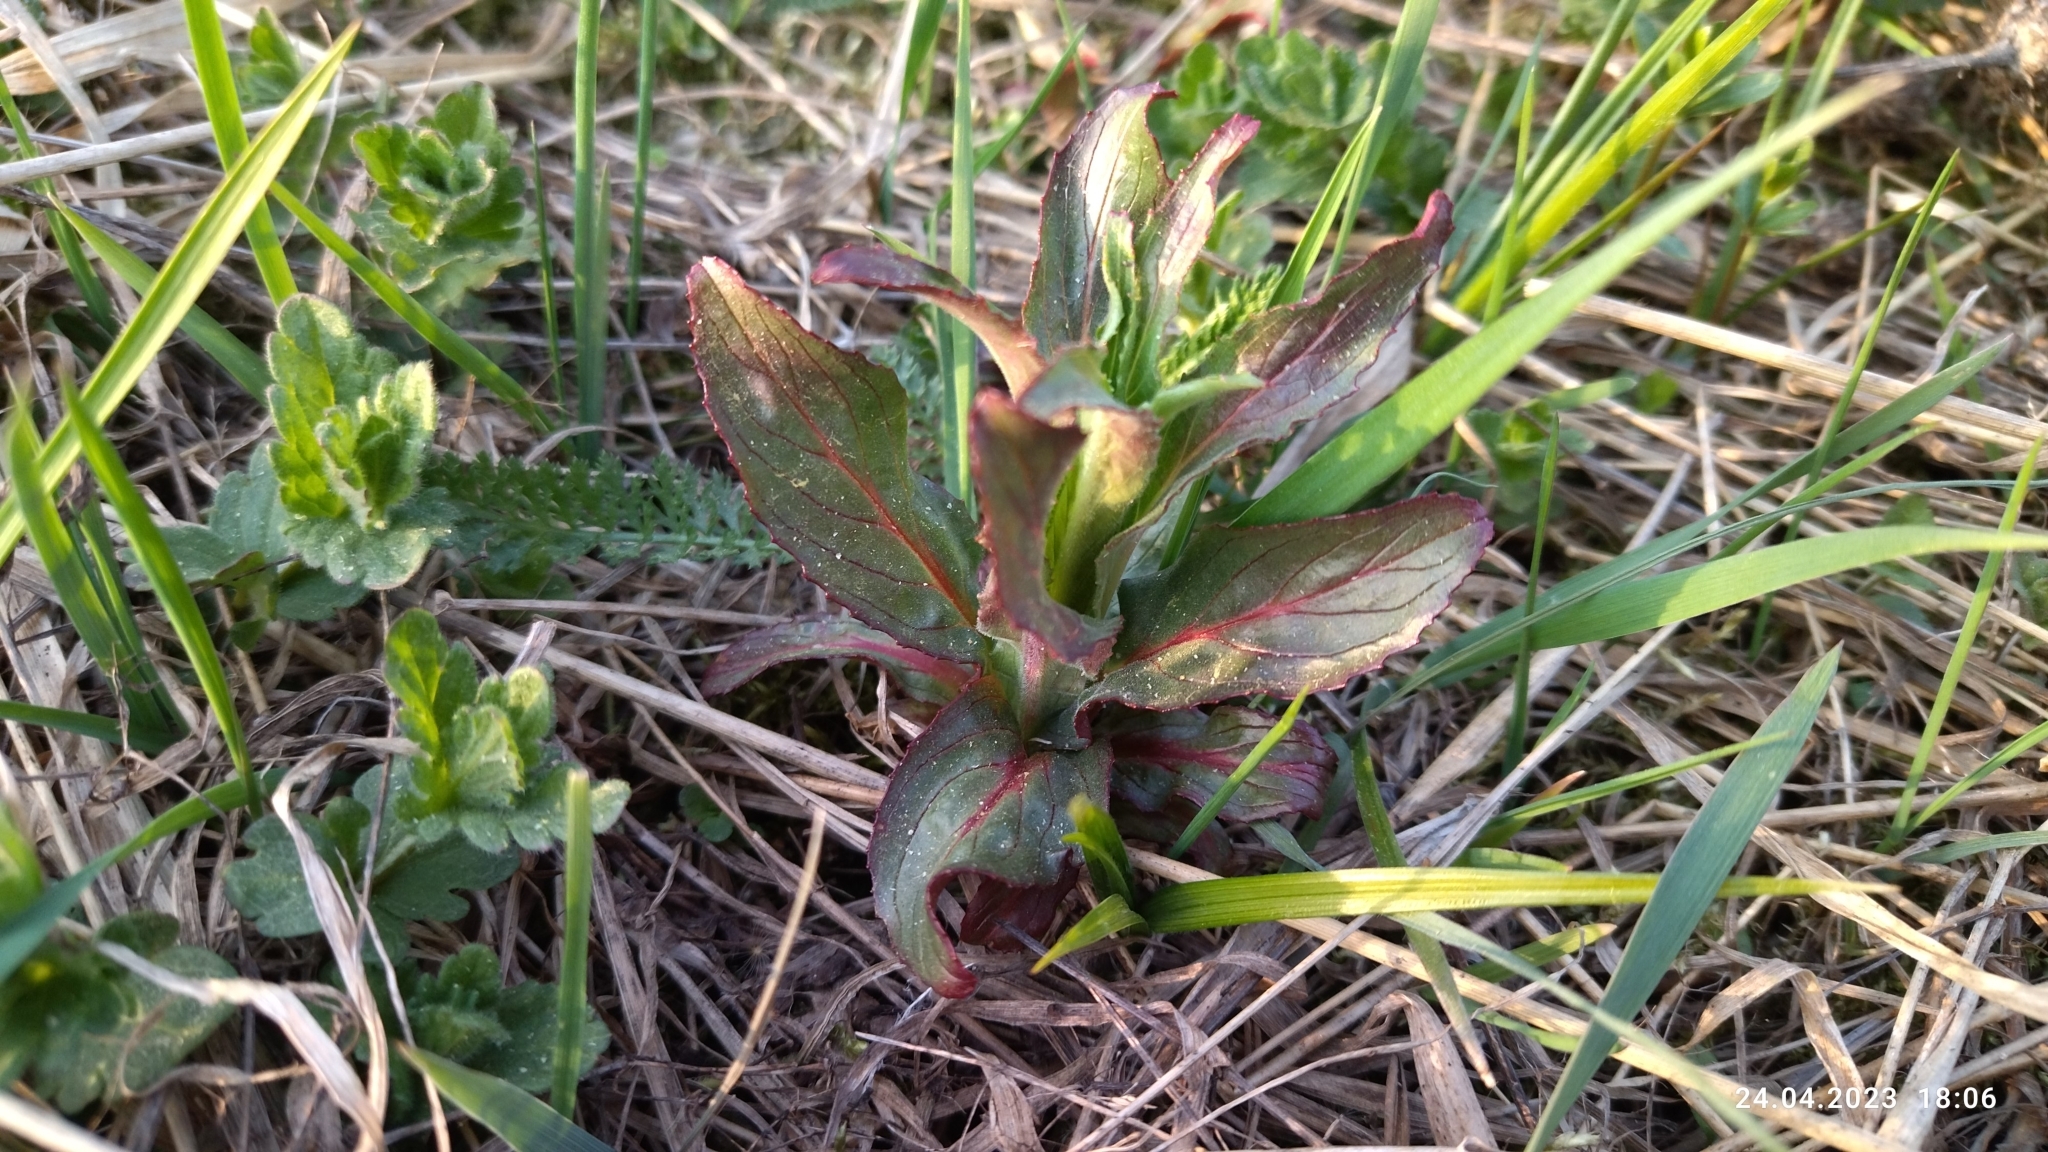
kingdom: Plantae
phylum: Tracheophyta
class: Magnoliopsida
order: Myrtales
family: Onagraceae
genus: Epilobium
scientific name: Epilobium hirsutum
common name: Great willowherb
